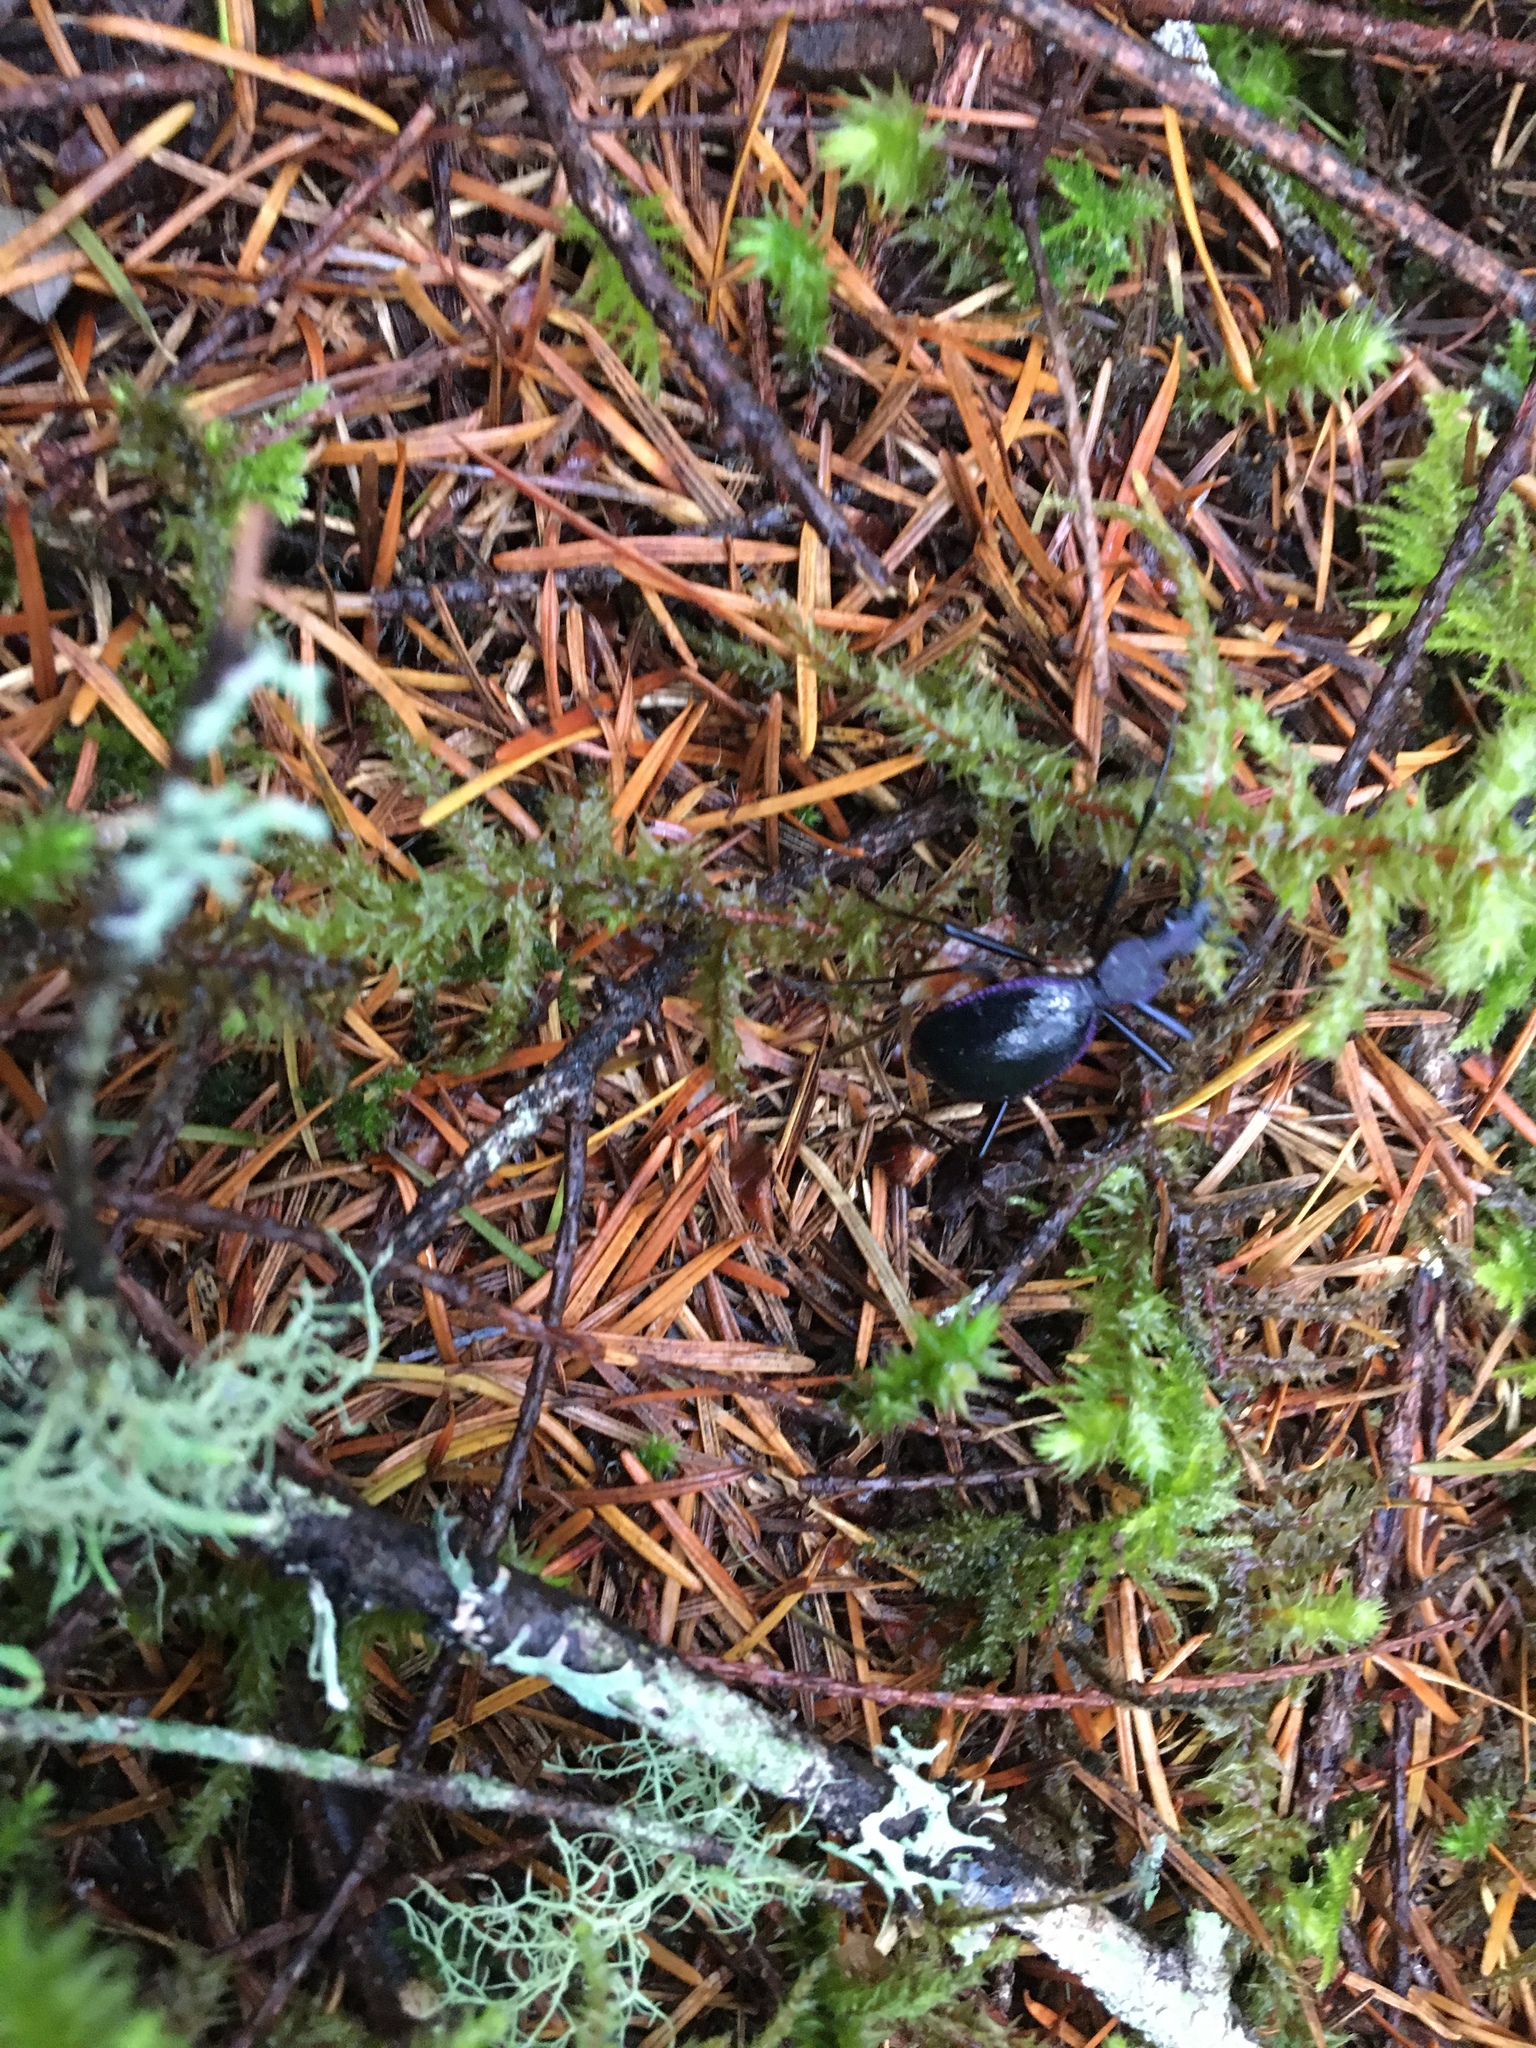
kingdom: Animalia
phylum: Arthropoda
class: Insecta
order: Coleoptera
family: Carabidae
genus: Scaphinotus
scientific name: Scaphinotus angusticollis
